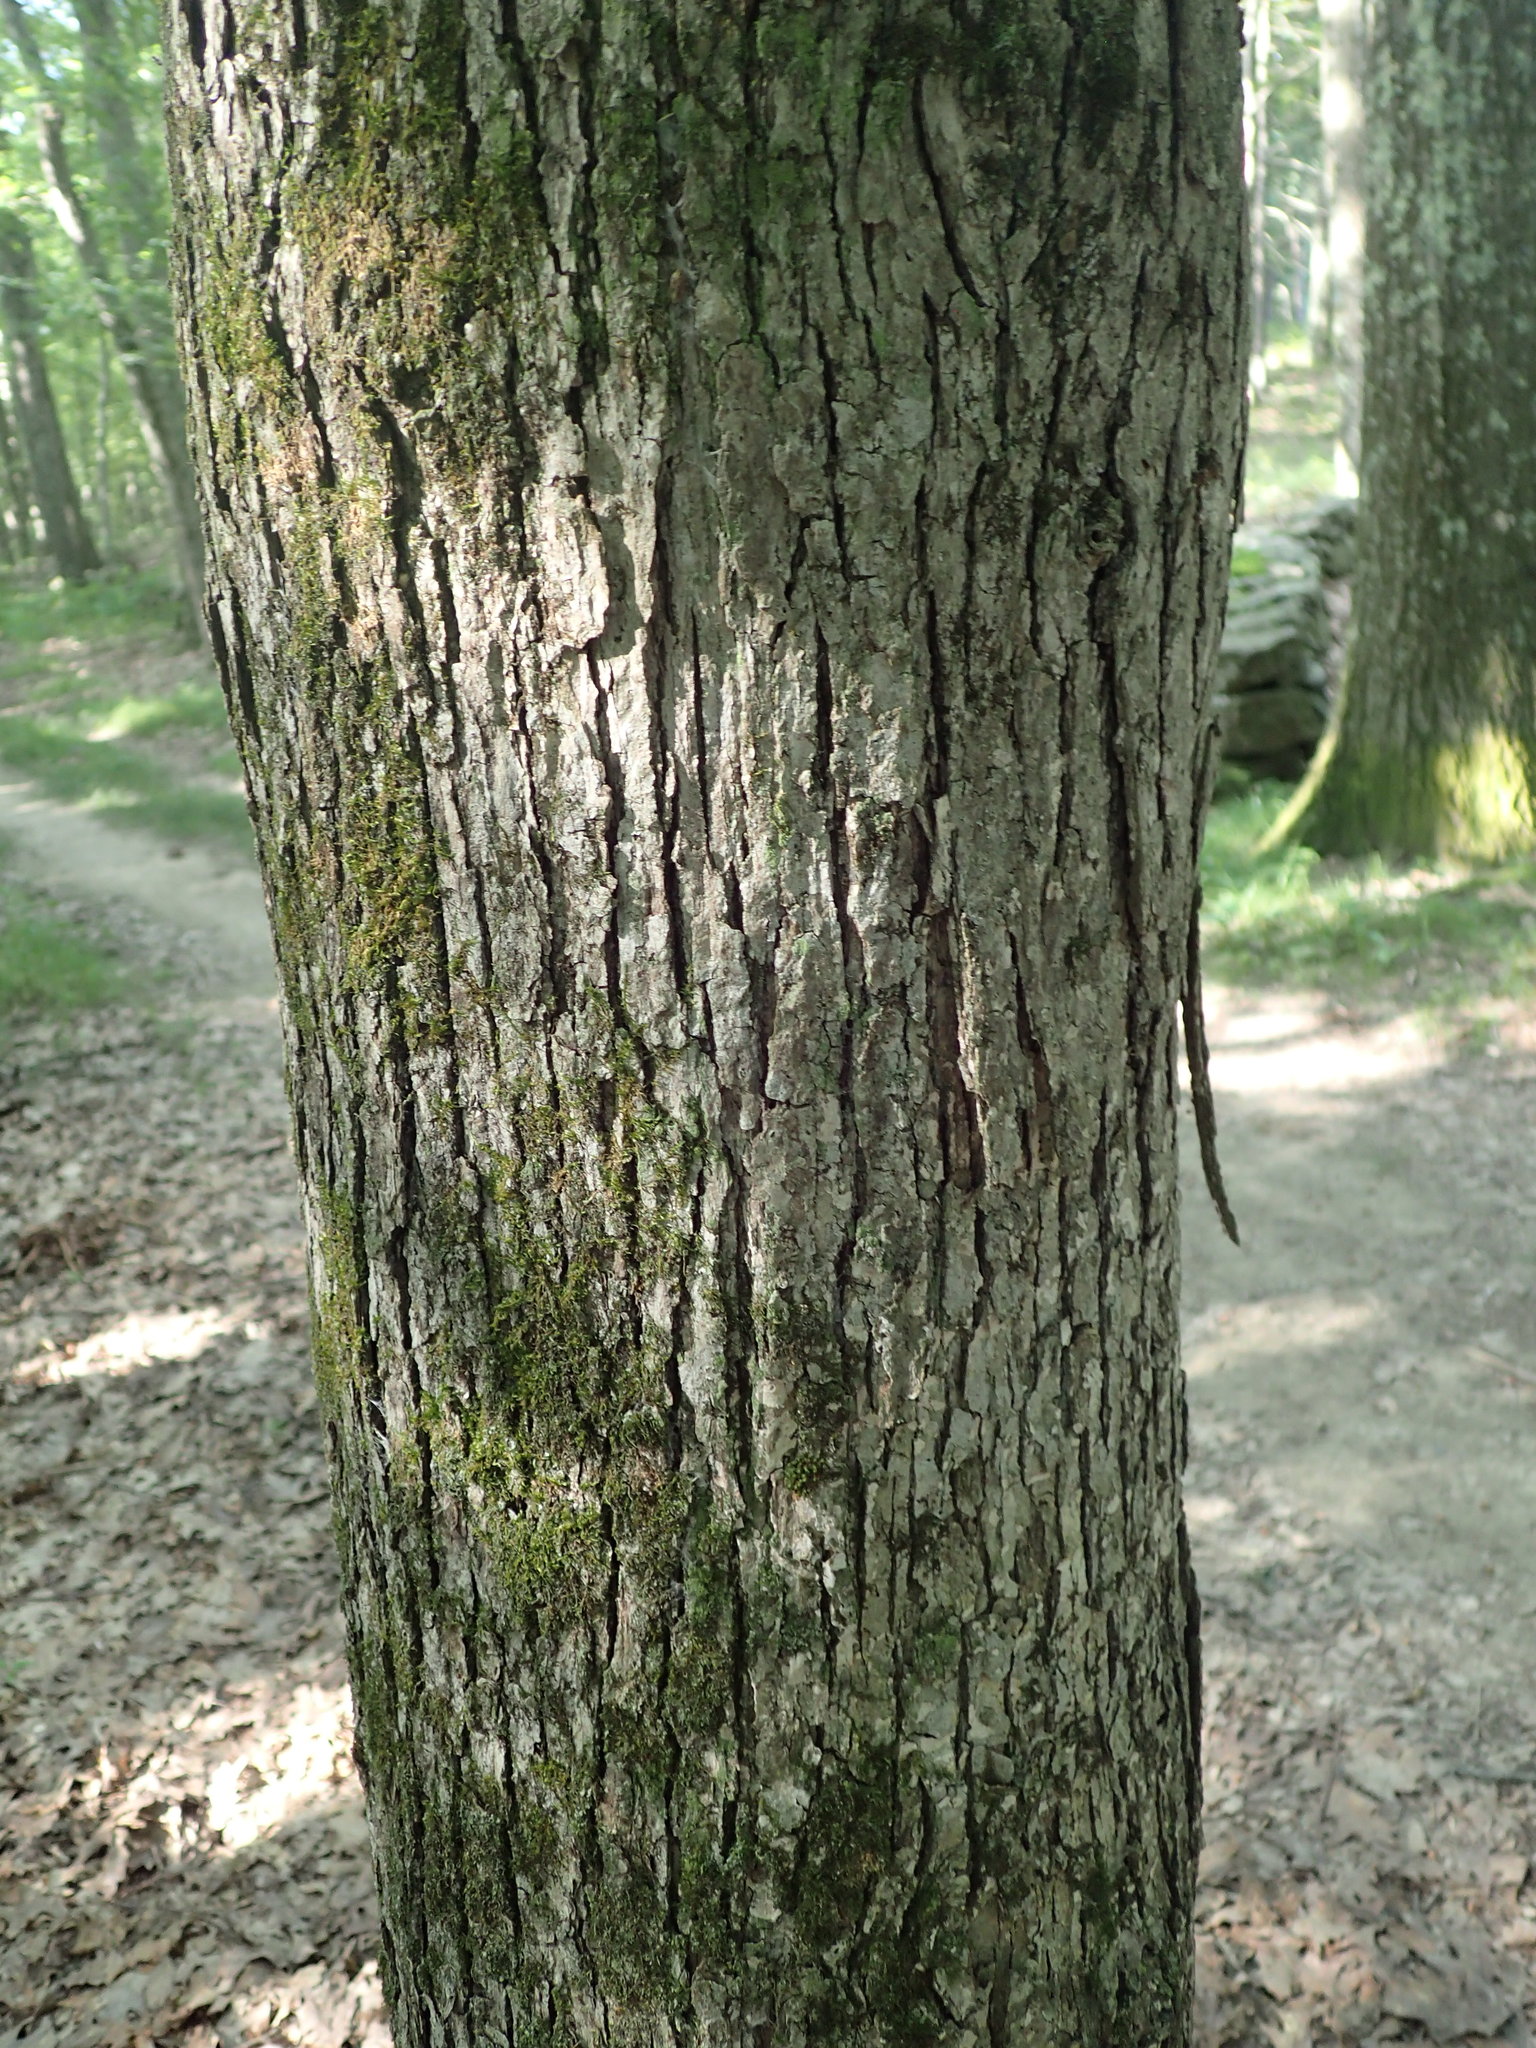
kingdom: Plantae
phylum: Tracheophyta
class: Magnoliopsida
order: Fagales
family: Fagaceae
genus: Quercus
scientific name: Quercus alba
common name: White oak
